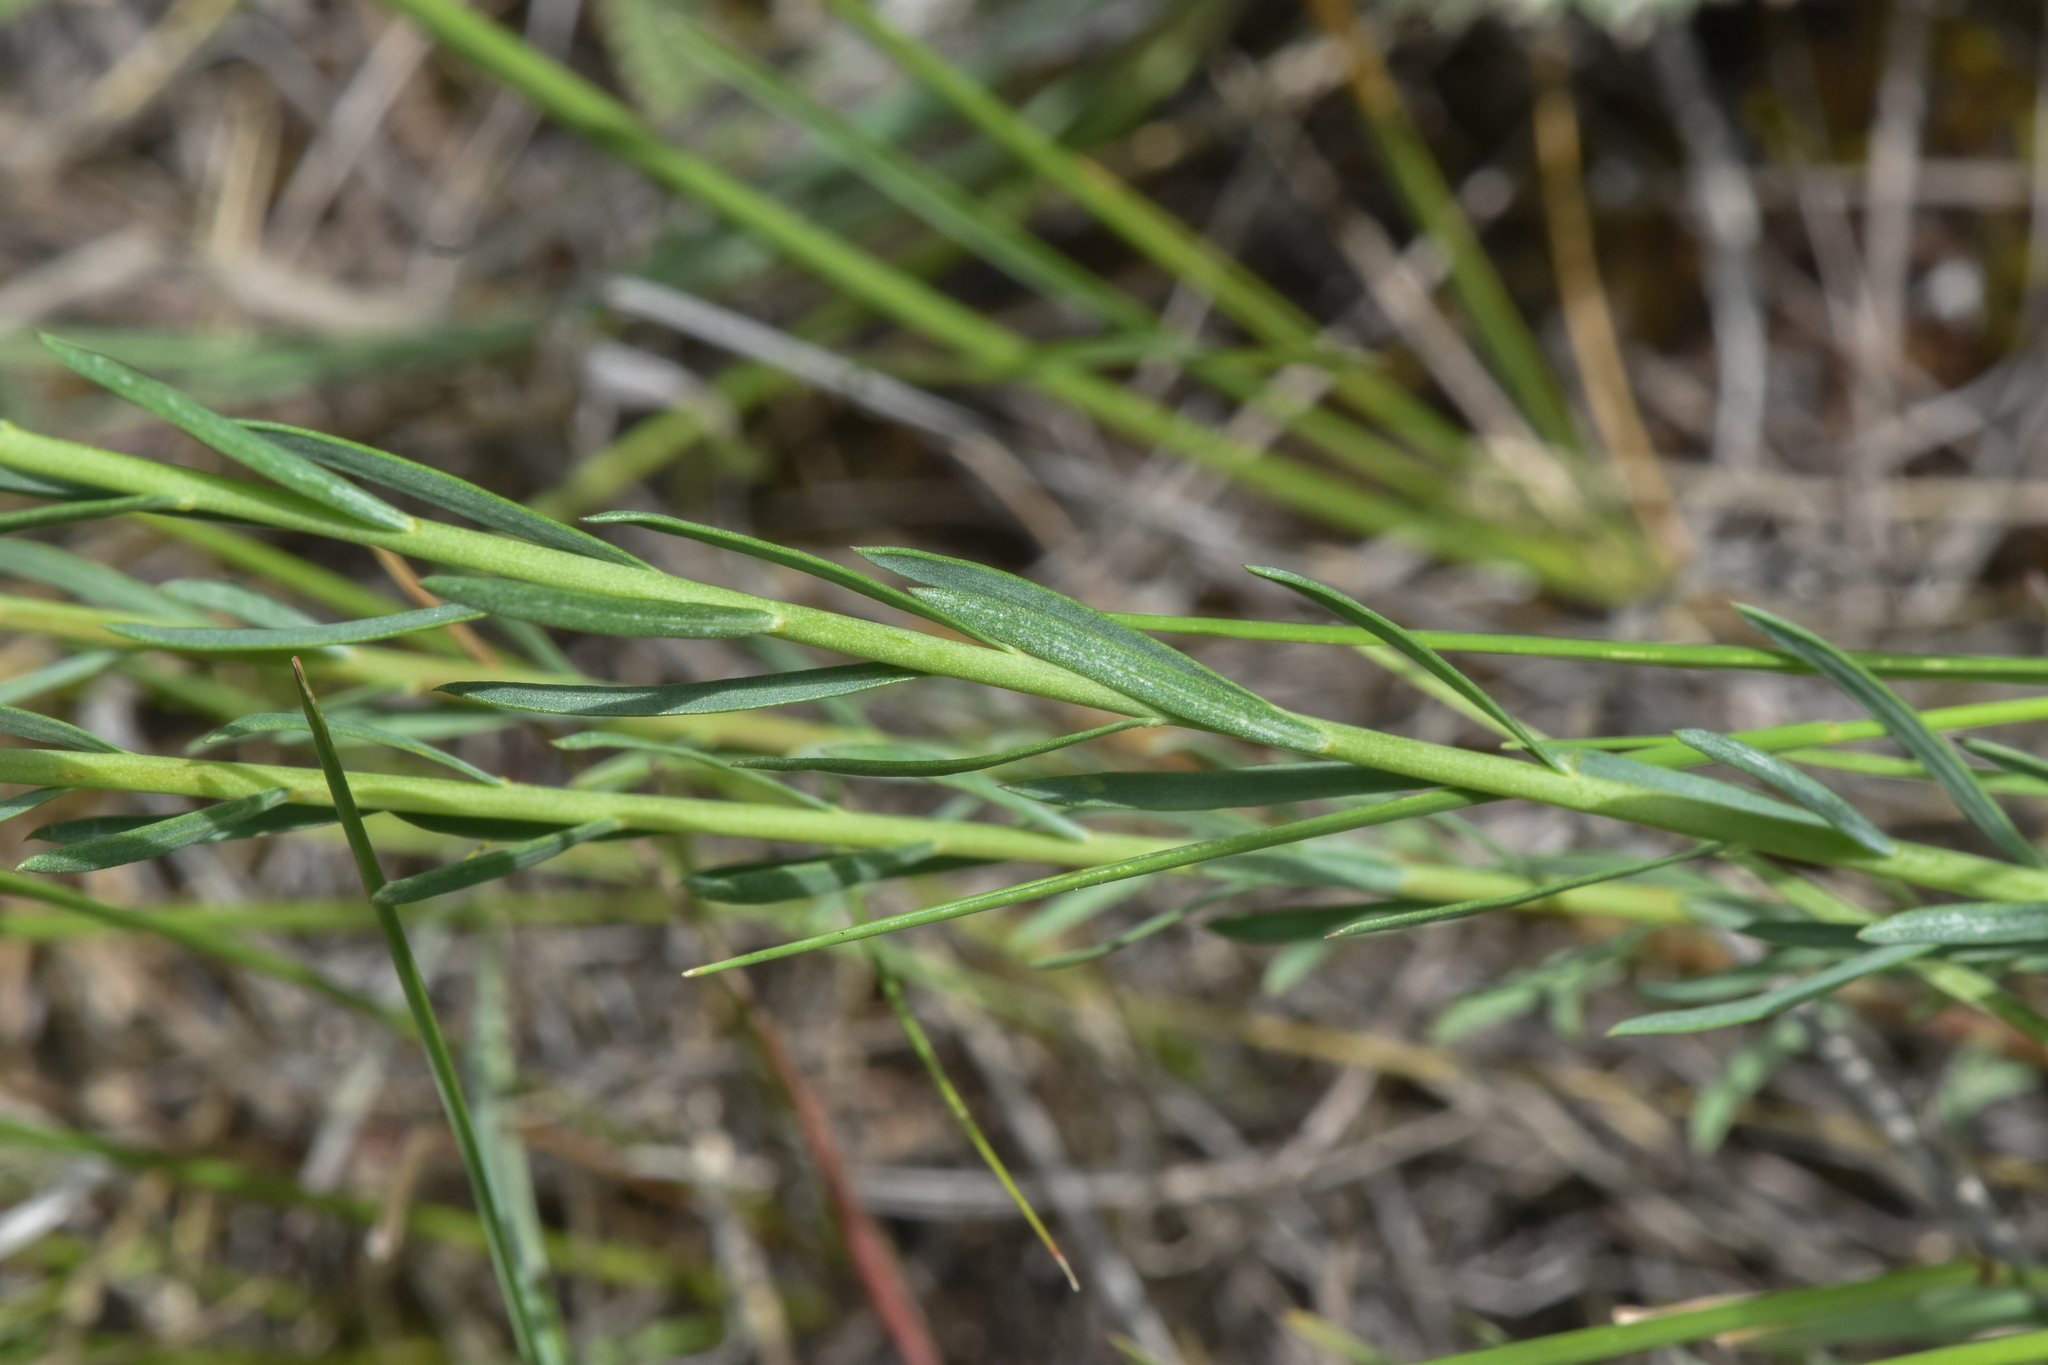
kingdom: Plantae
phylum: Tracheophyta
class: Magnoliopsida
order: Malpighiales
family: Linaceae
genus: Linum
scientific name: Linum lewisii
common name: Prairie flax
